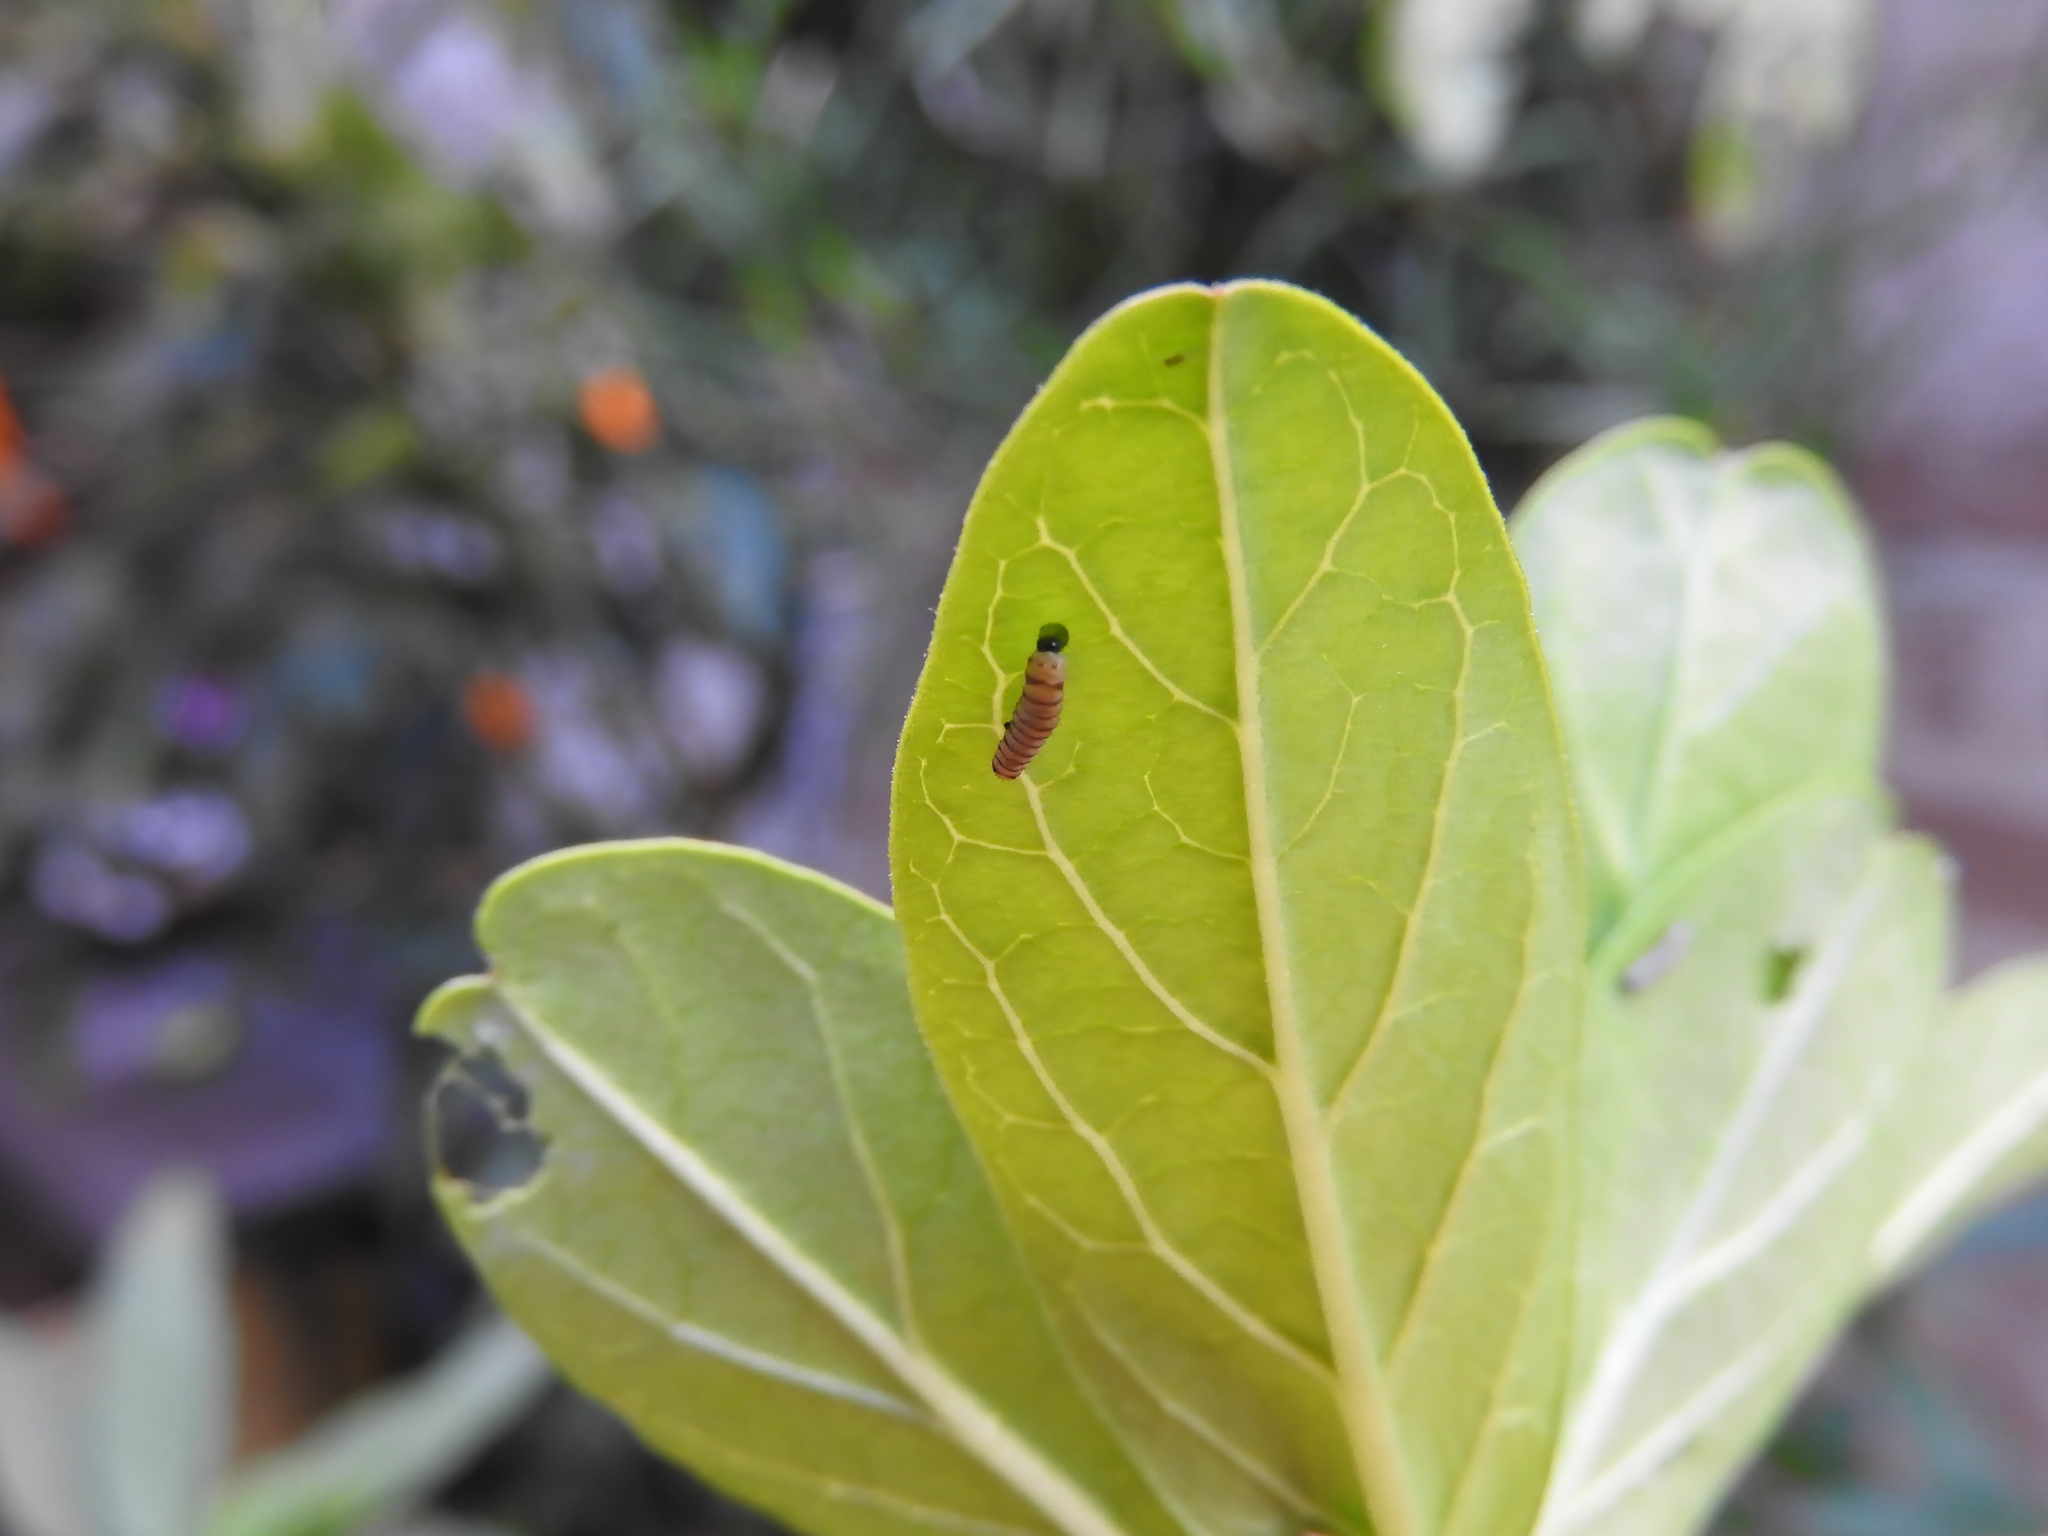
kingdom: Animalia
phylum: Arthropoda
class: Insecta
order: Lepidoptera
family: Nymphalidae
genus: Danaus
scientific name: Danaus plexippus
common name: Monarch
